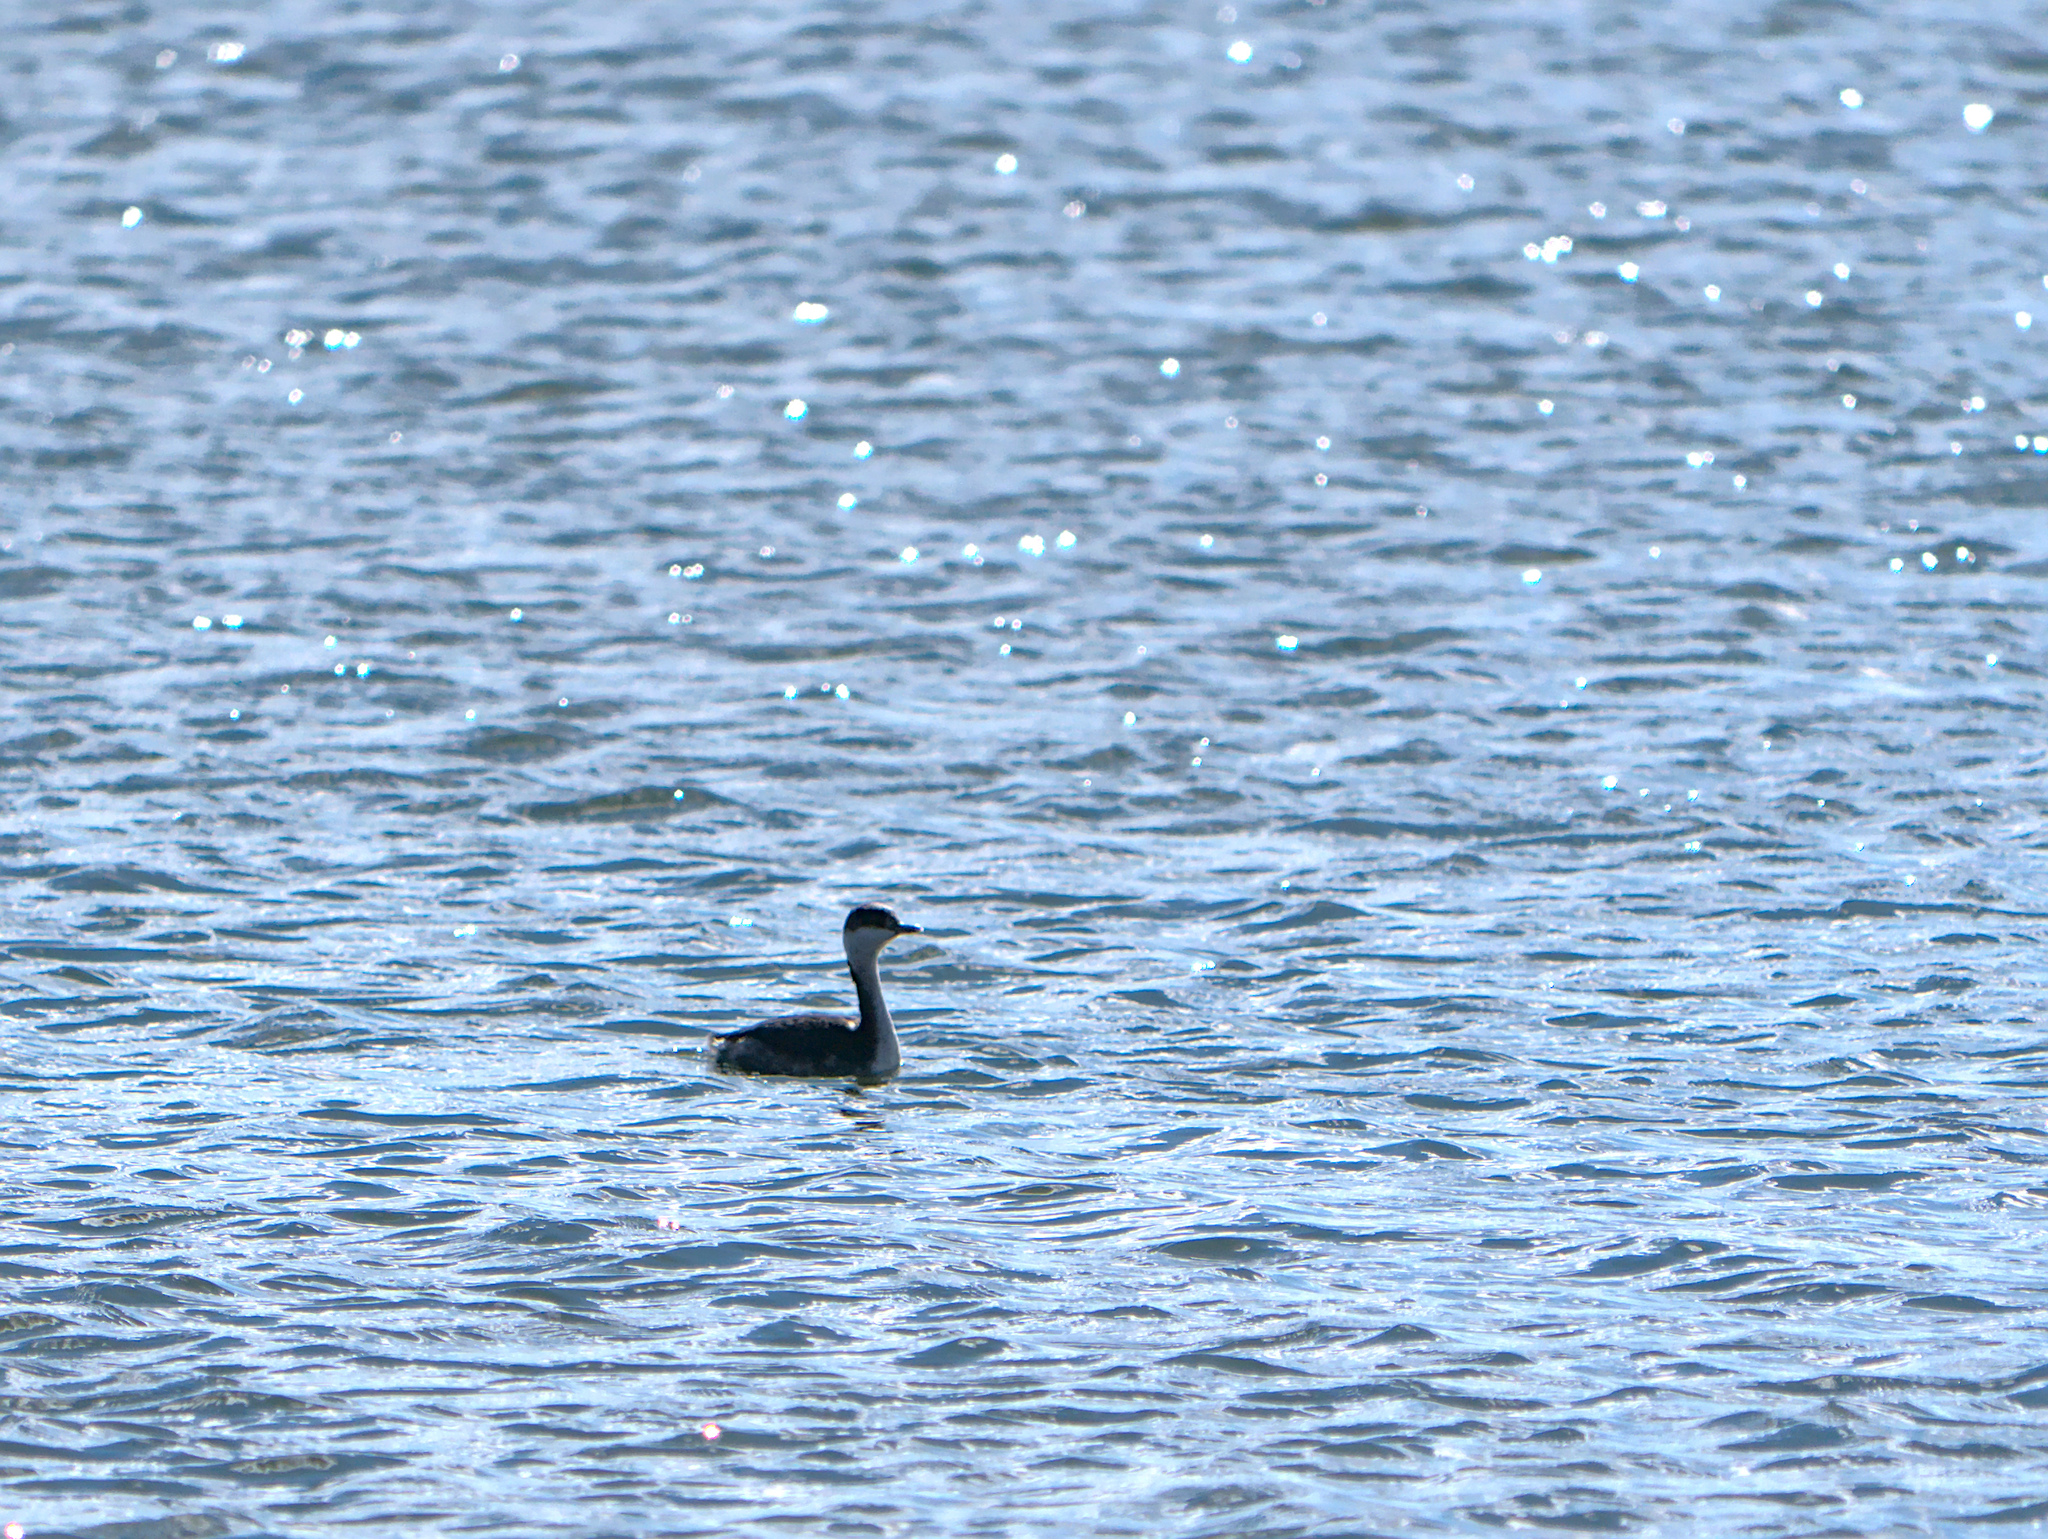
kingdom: Animalia
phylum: Chordata
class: Aves
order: Podicipediformes
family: Podicipedidae
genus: Podiceps
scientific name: Podiceps auritus
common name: Horned grebe
